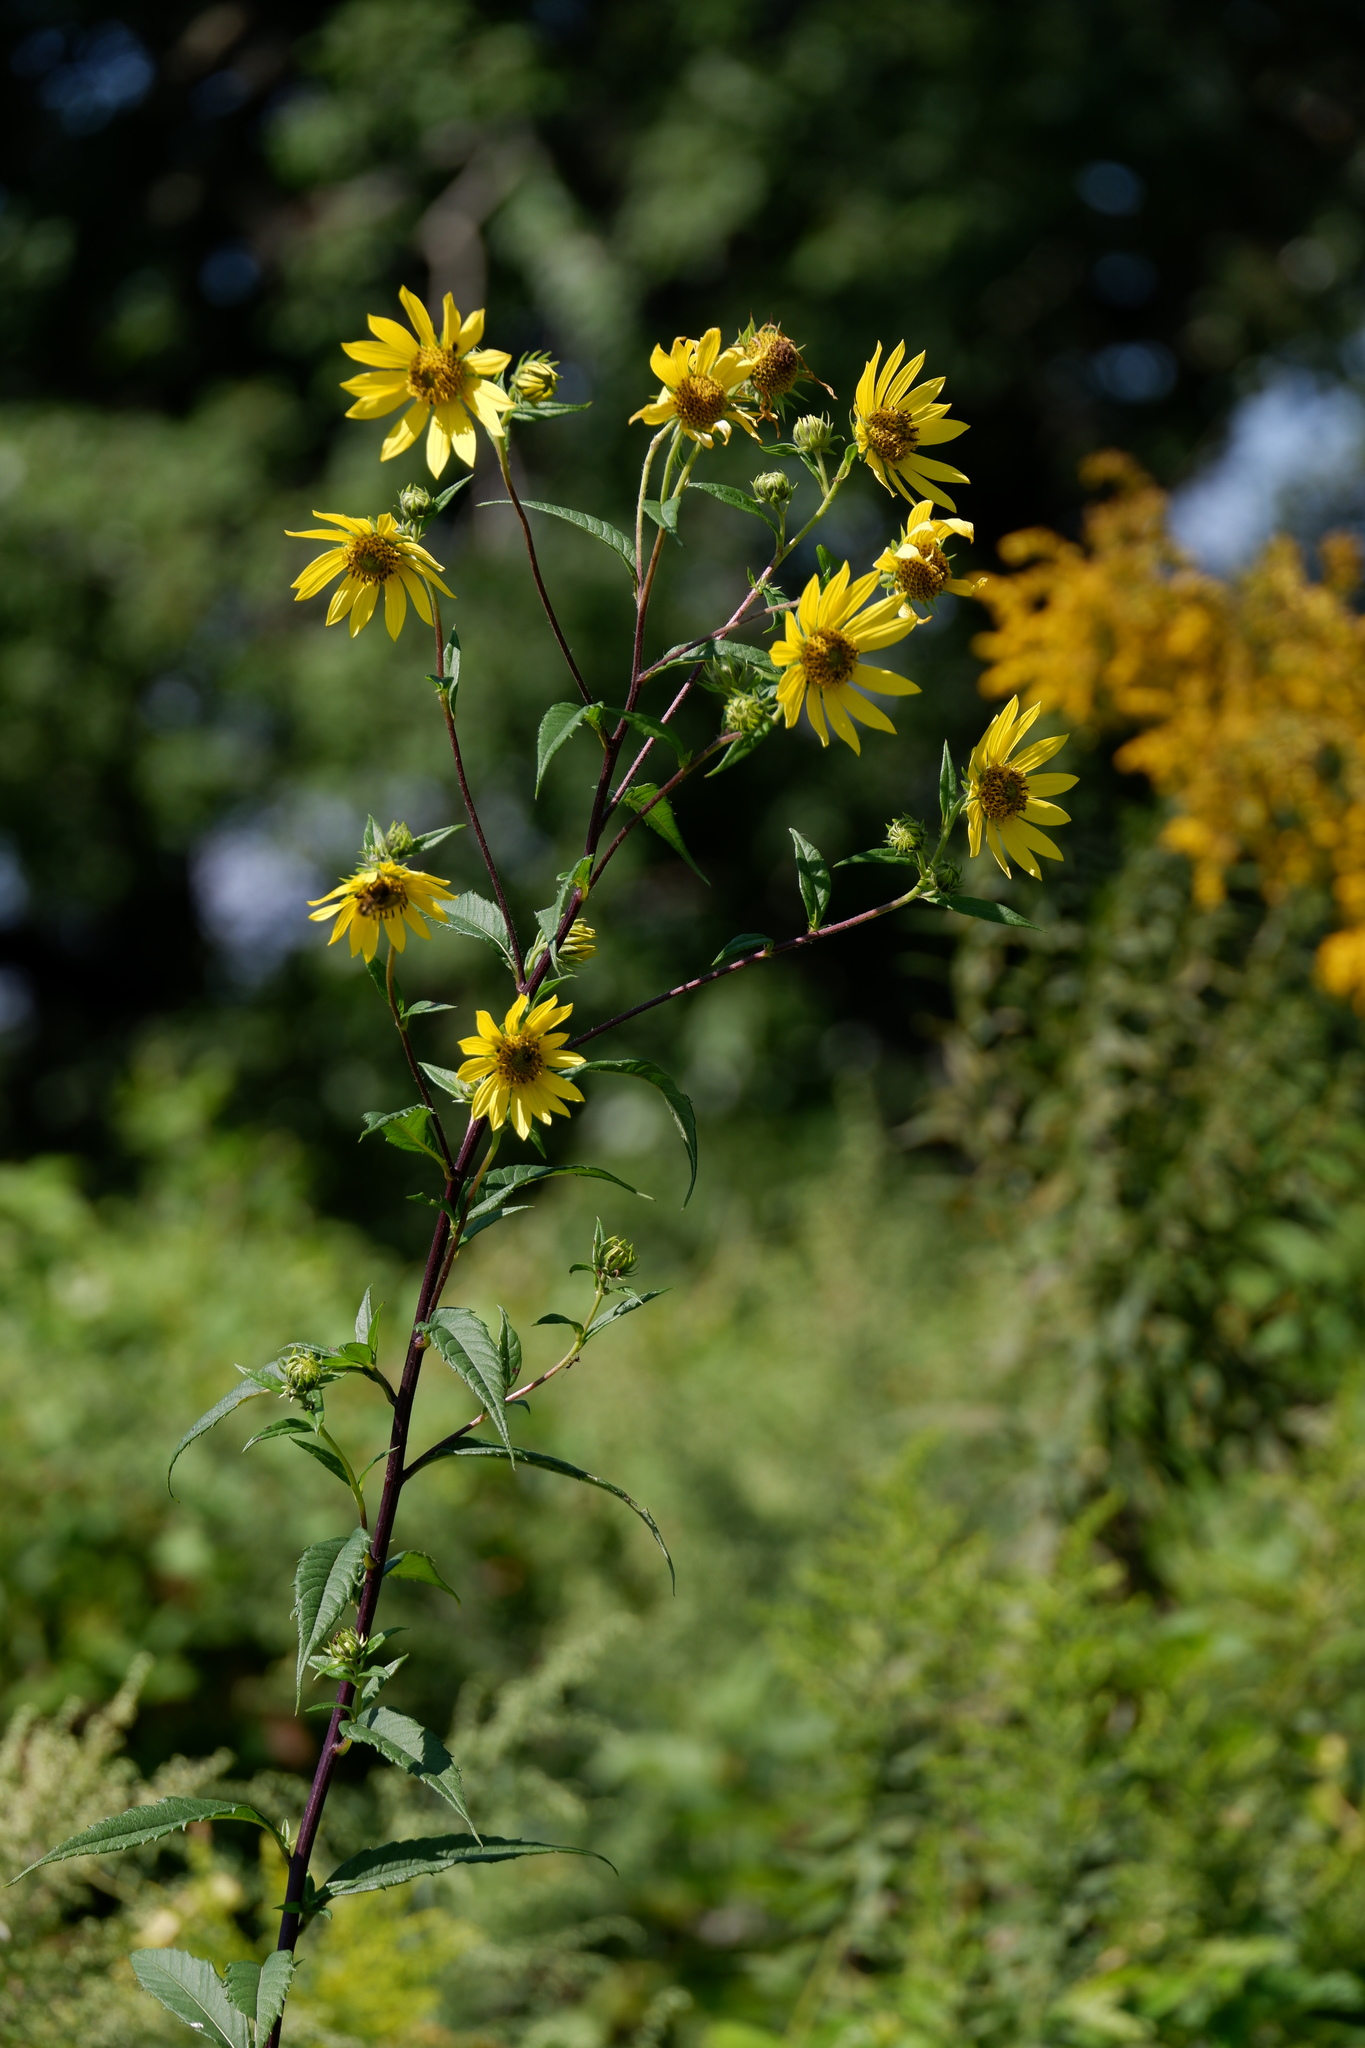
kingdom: Plantae
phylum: Tracheophyta
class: Magnoliopsida
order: Asterales
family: Asteraceae
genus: Helianthus
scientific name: Helianthus giganteus
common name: Giant sunflower
